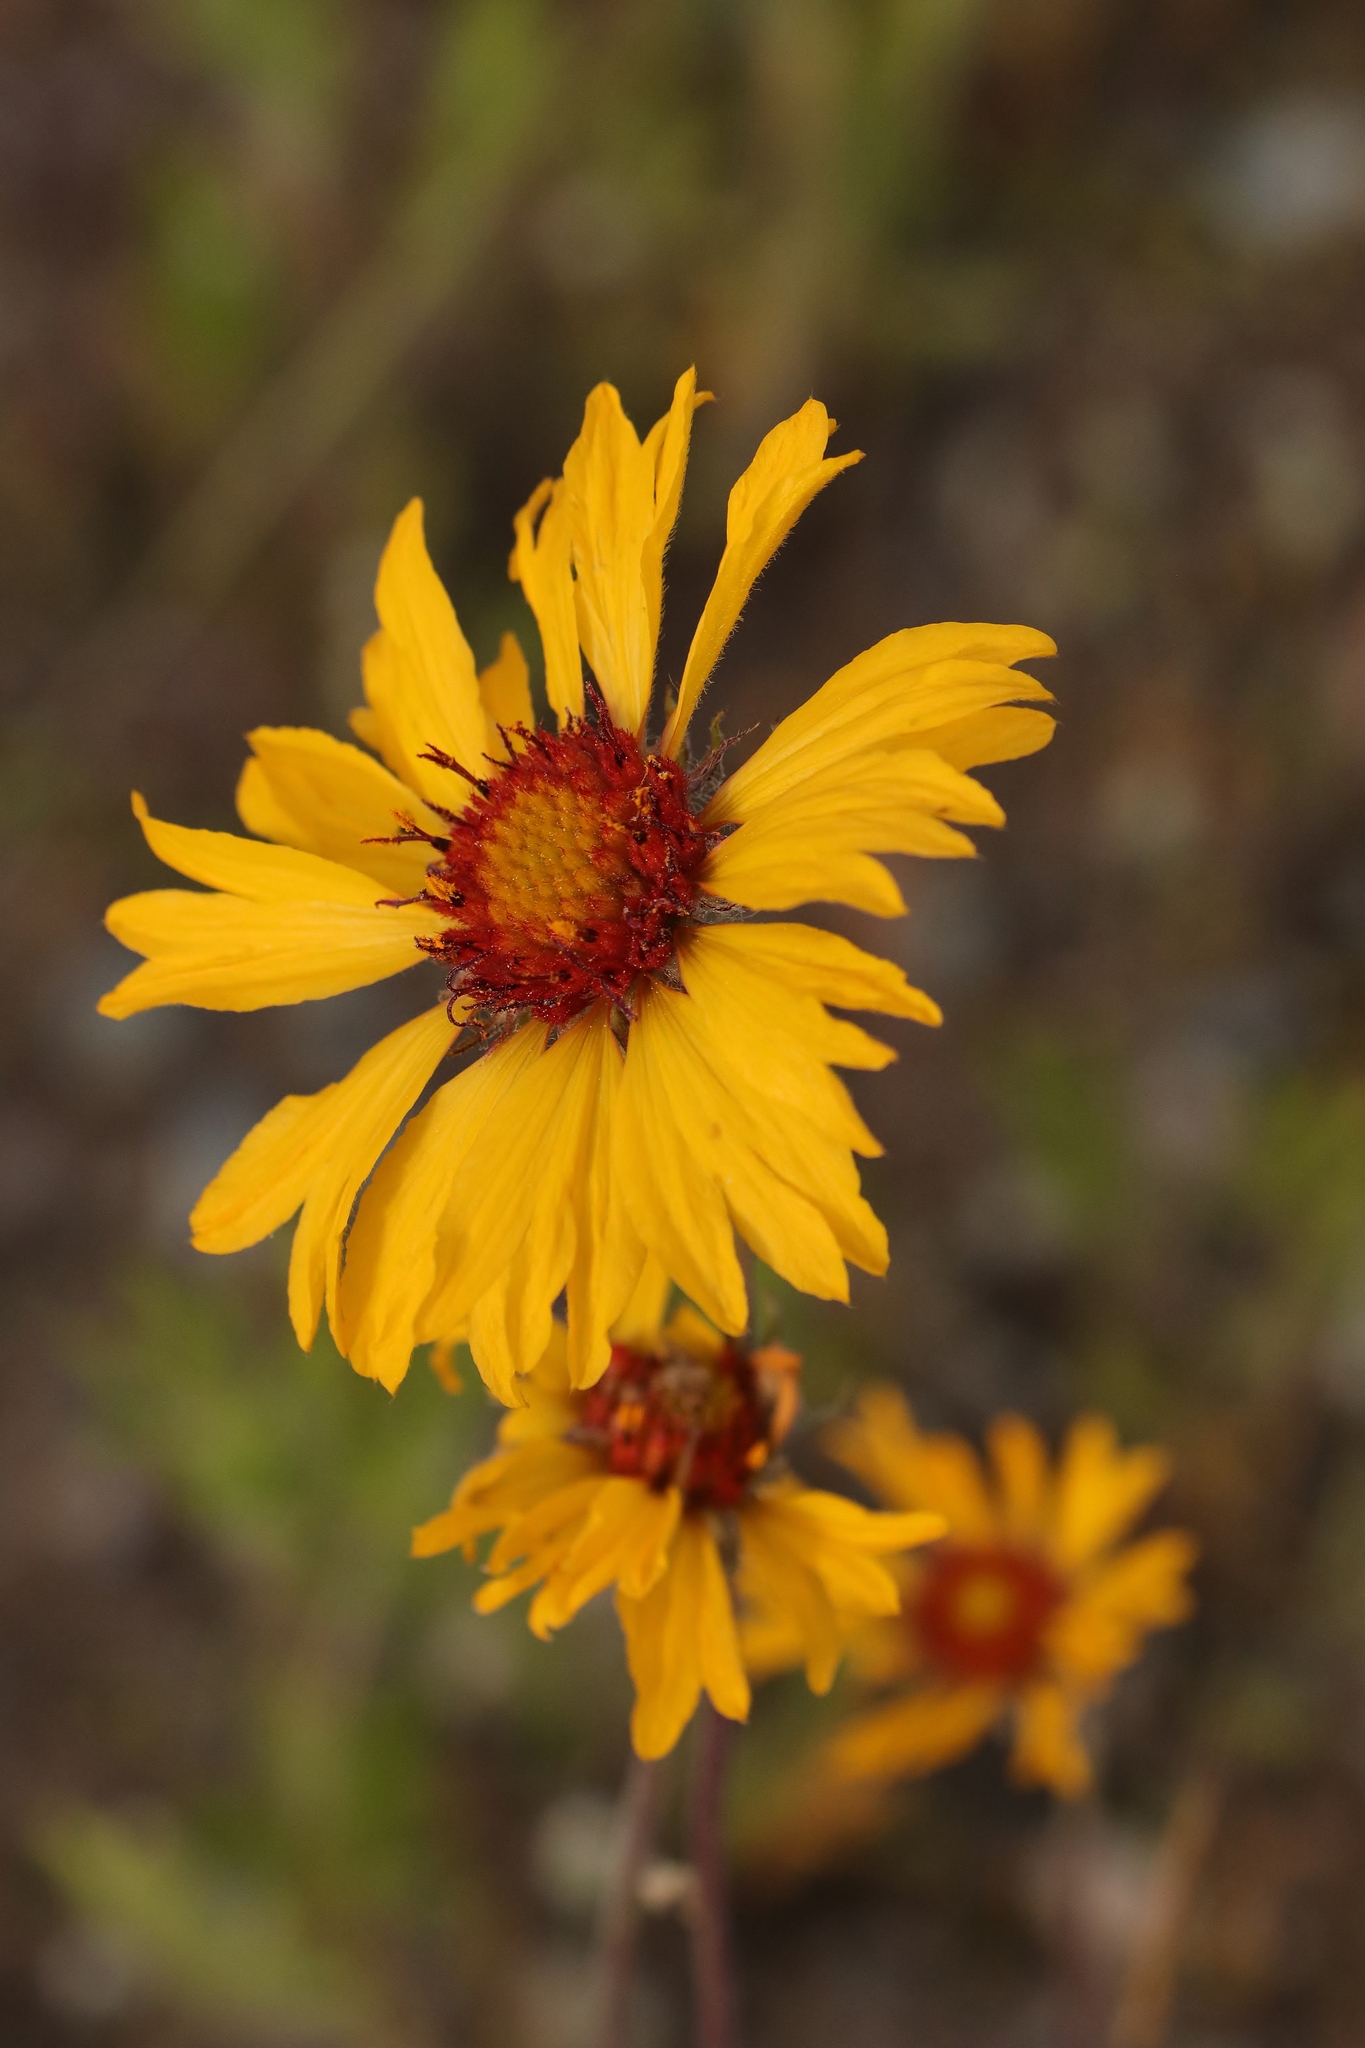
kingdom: Plantae
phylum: Tracheophyta
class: Magnoliopsida
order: Asterales
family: Asteraceae
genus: Gaillardia
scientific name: Gaillardia aristata
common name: Blanket-flower
